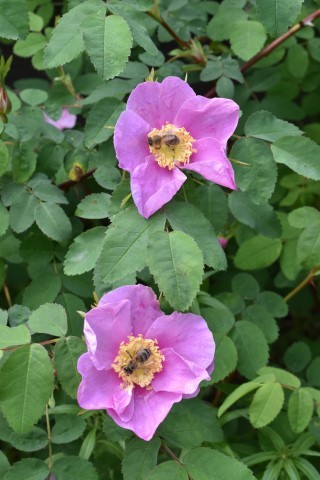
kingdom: Animalia
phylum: Arthropoda
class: Insecta
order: Hymenoptera
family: Apidae
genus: Apis
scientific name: Apis mellifera
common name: Honey bee
